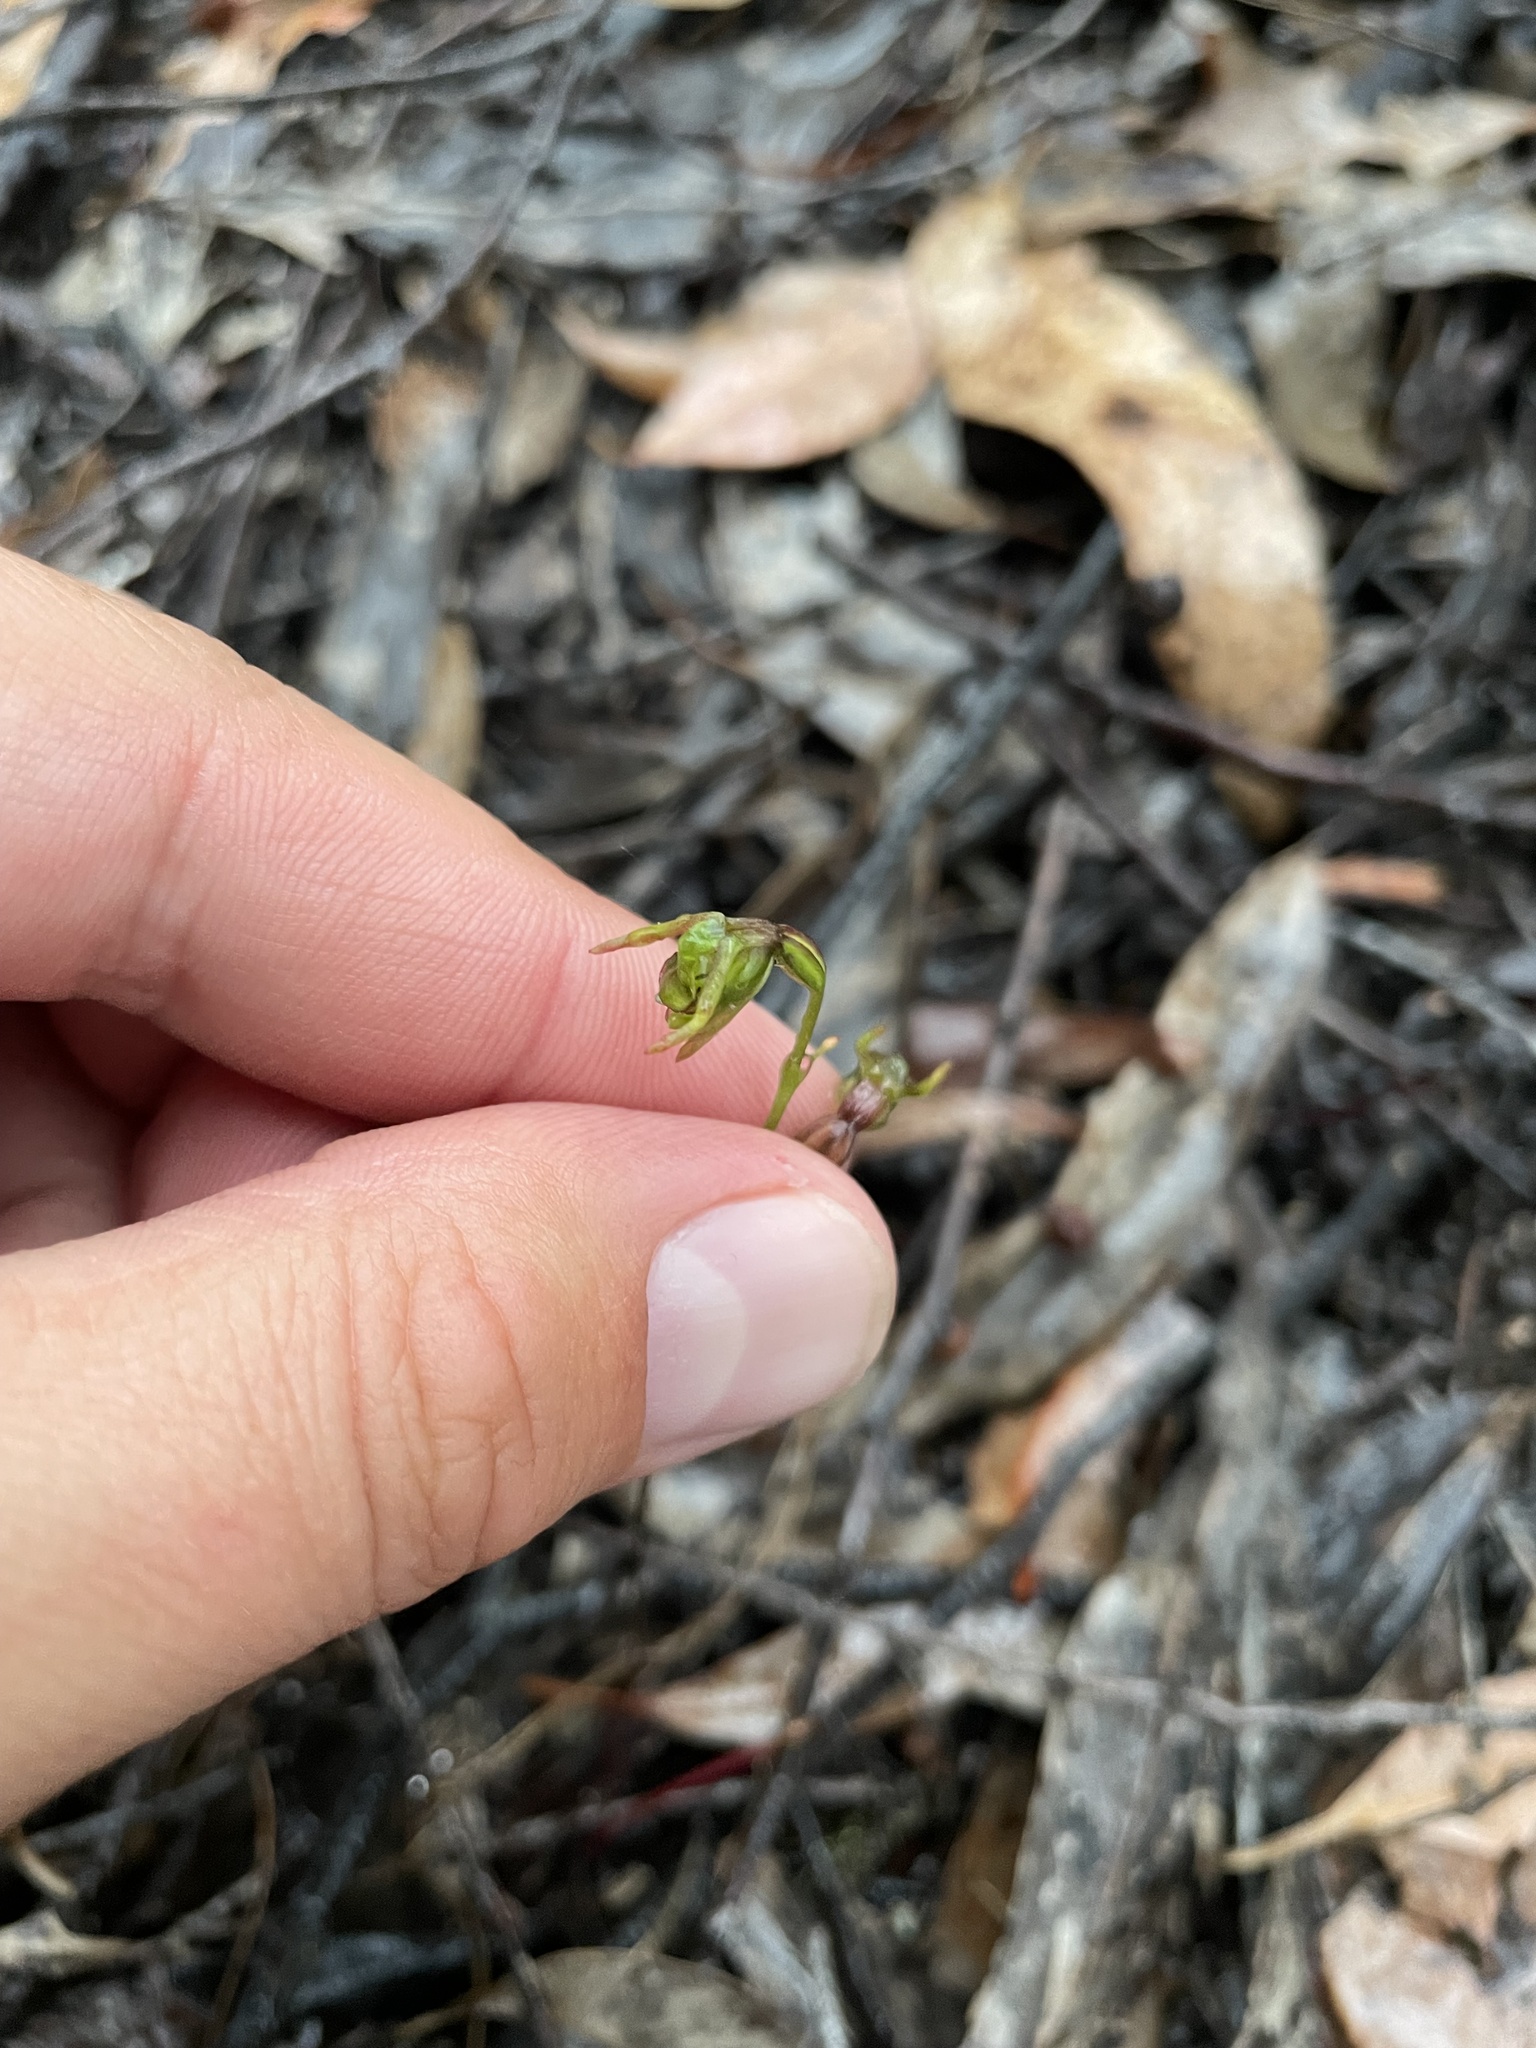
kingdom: Plantae
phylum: Tracheophyta
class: Liliopsida
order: Asparagales
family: Orchidaceae
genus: Caleana
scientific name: Caleana minor
